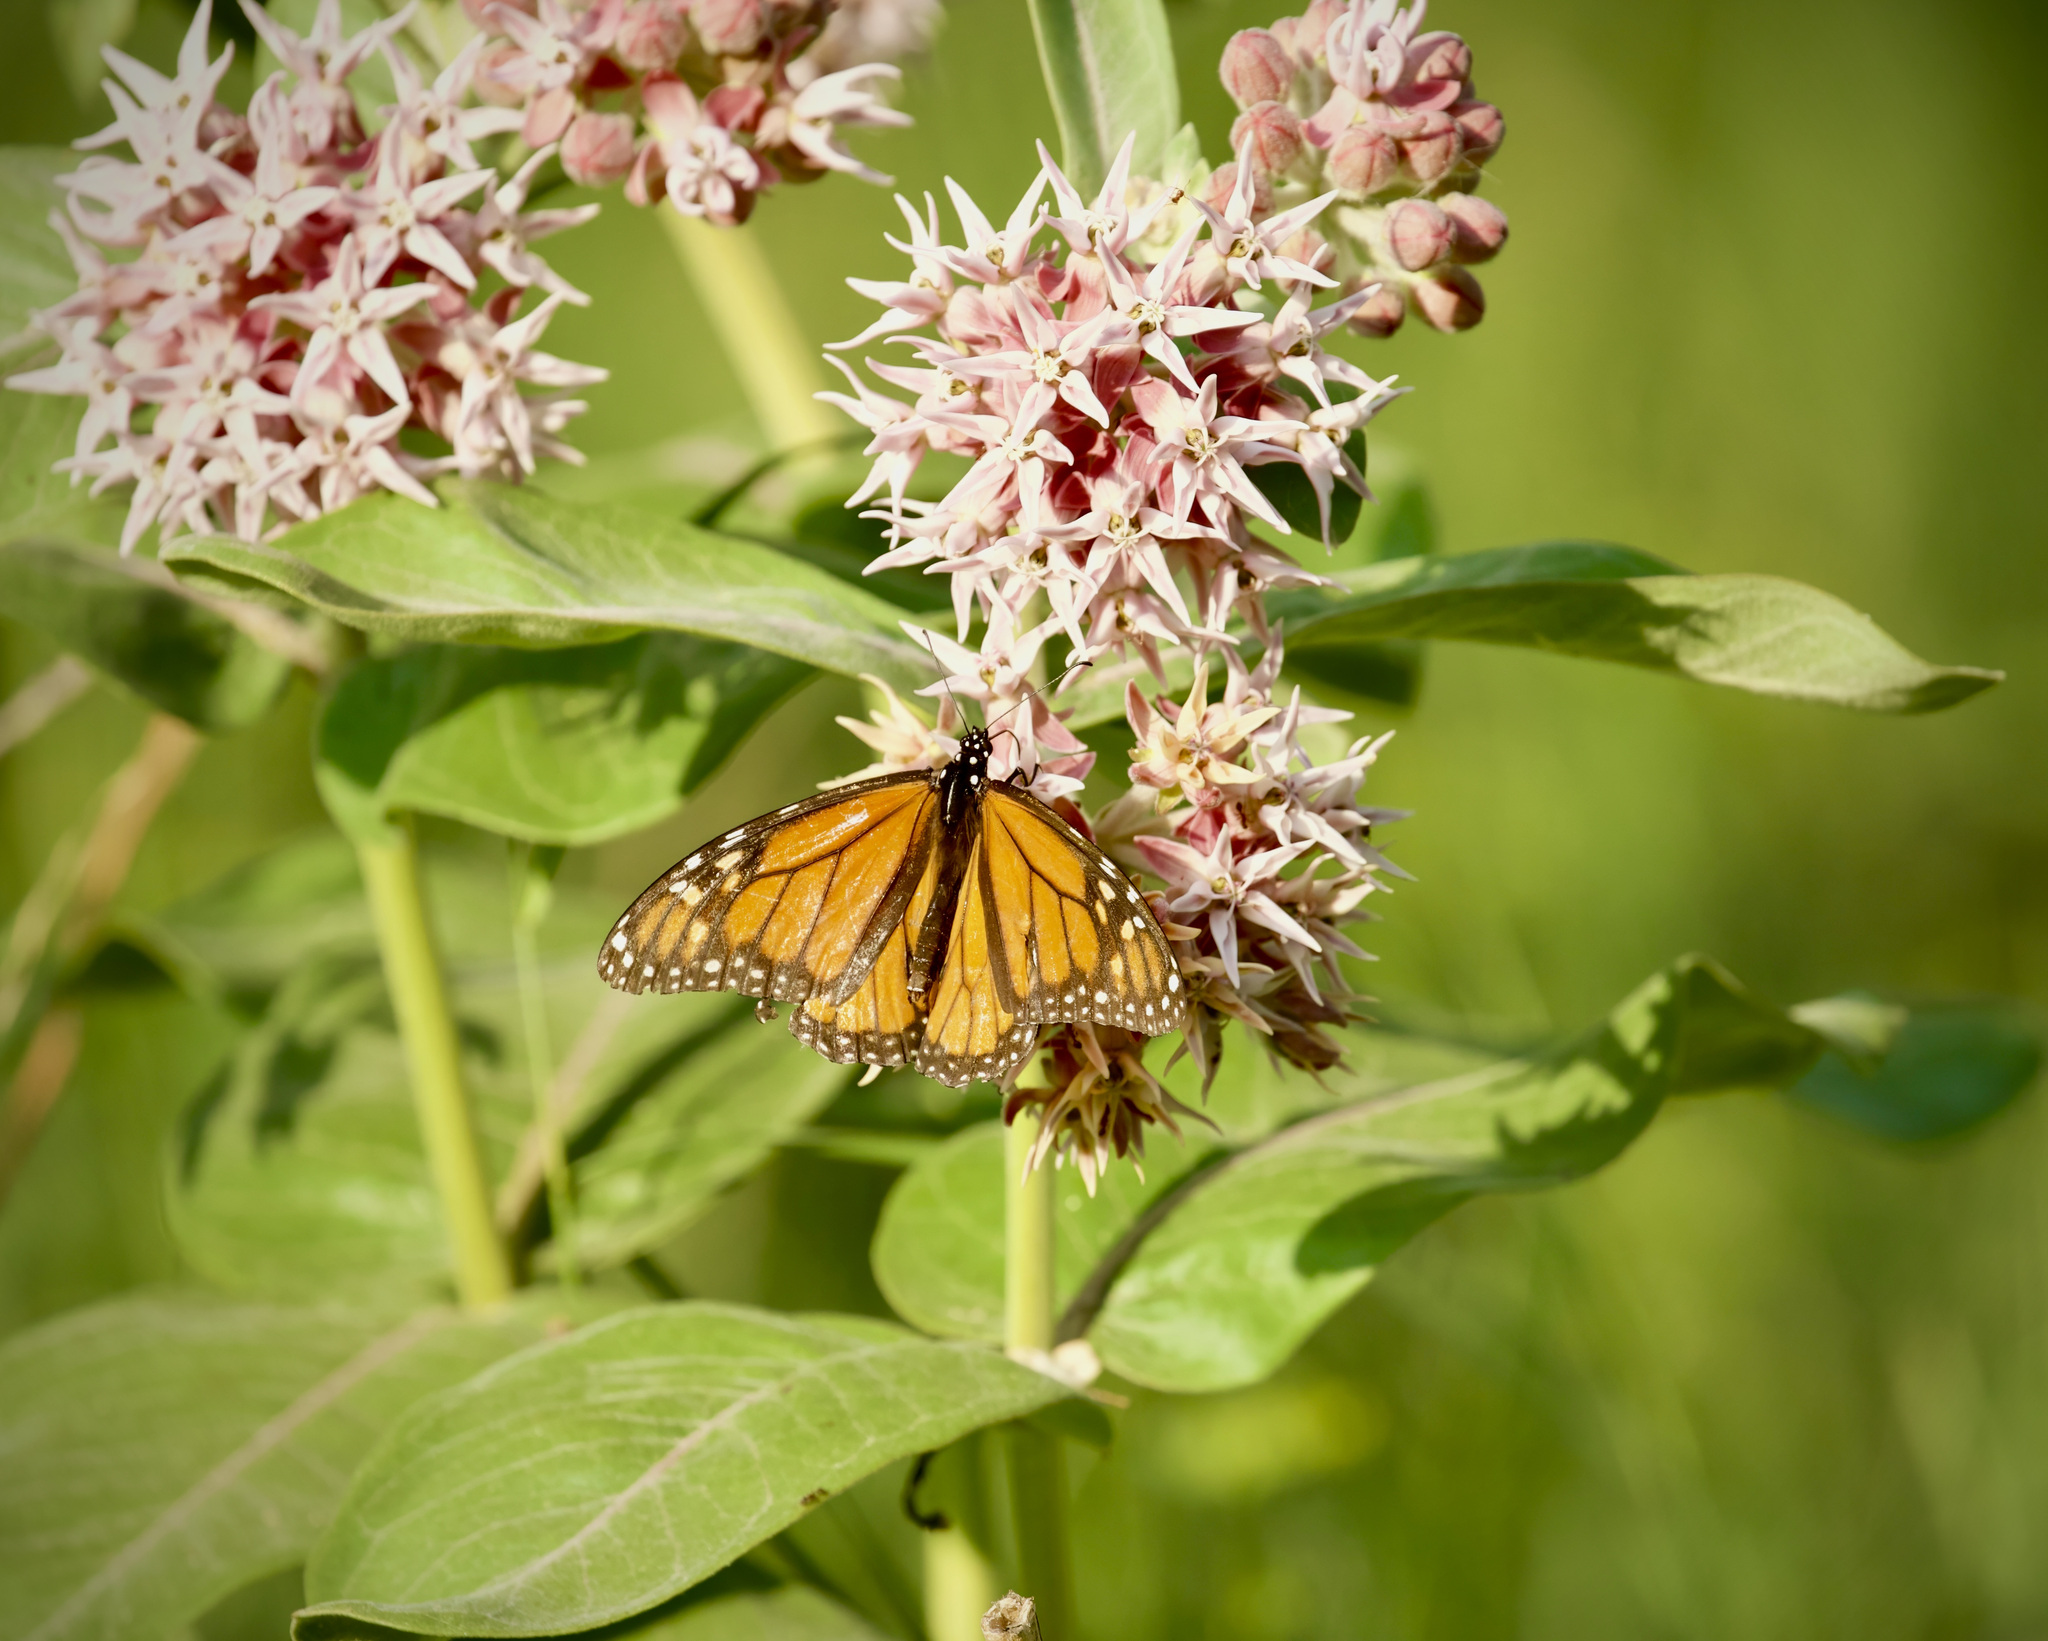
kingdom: Animalia
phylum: Arthropoda
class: Insecta
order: Lepidoptera
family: Nymphalidae
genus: Danaus
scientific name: Danaus plexippus
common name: Monarch
